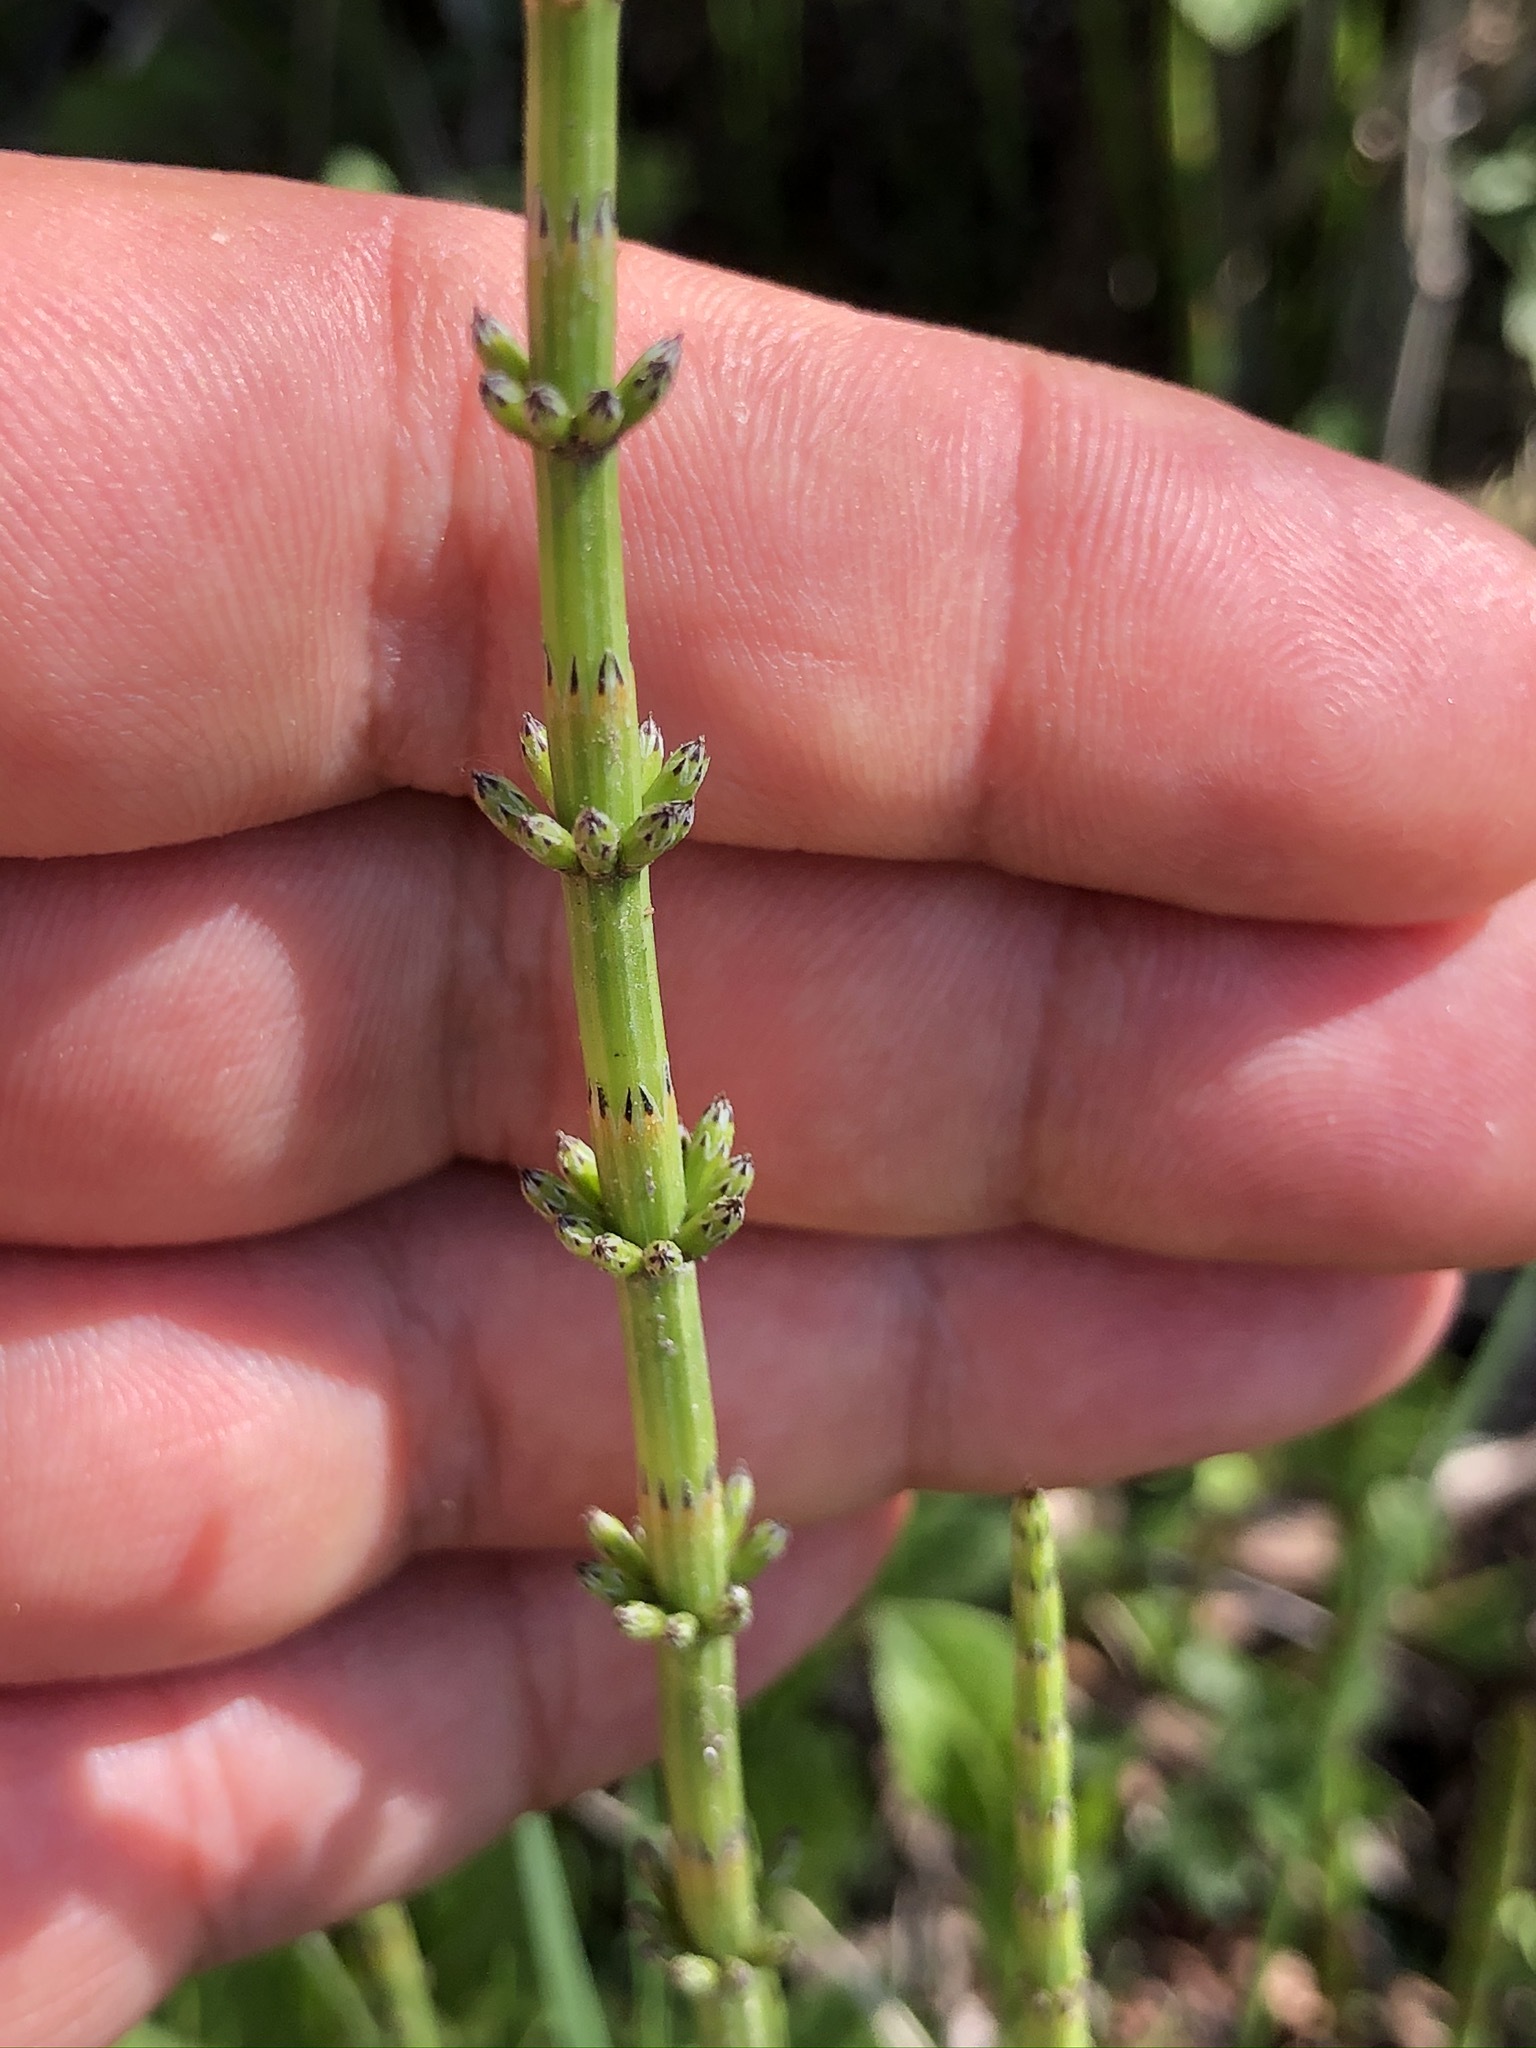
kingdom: Plantae
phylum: Tracheophyta
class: Polypodiopsida
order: Equisetales
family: Equisetaceae
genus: Equisetum
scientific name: Equisetum palustre
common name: Marsh horsetail
